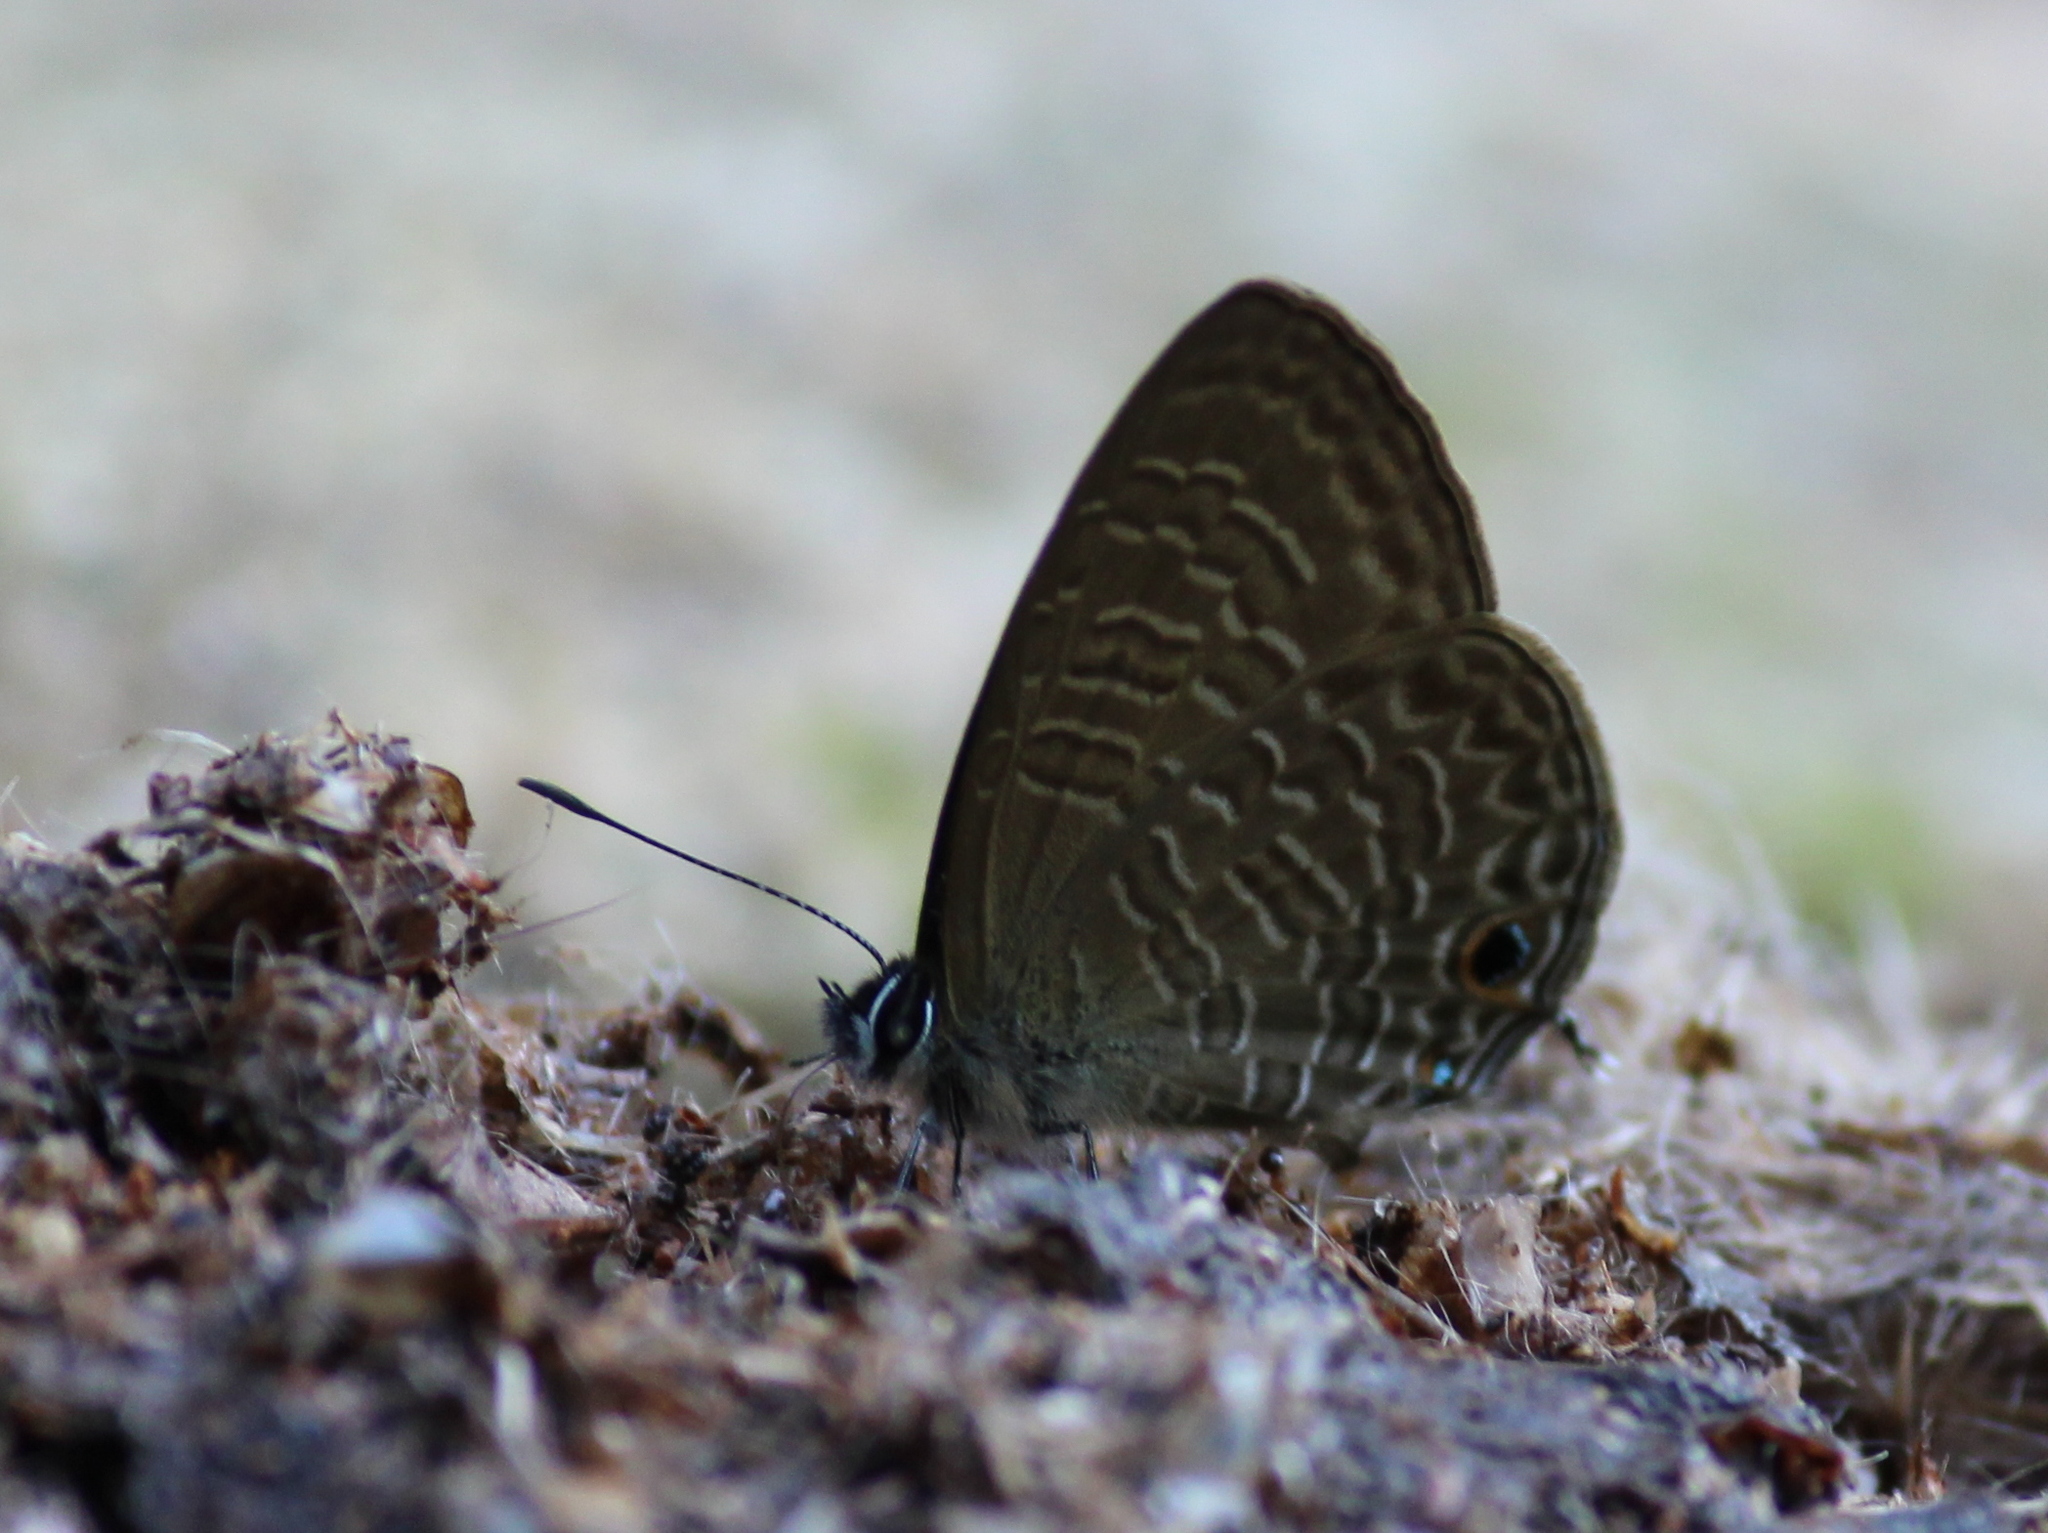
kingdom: Animalia
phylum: Arthropoda
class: Insecta
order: Lepidoptera
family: Lycaenidae
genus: Nacaduba
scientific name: Nacaduba berenice
